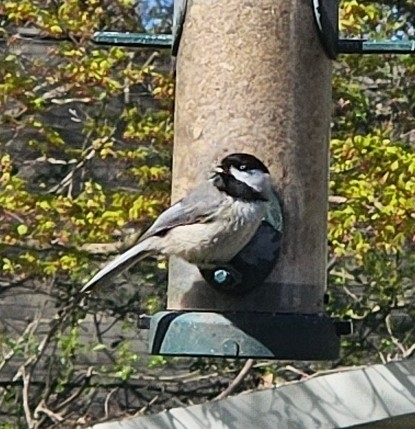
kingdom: Animalia
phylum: Chordata
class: Aves
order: Passeriformes
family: Paridae
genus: Poecile
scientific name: Poecile carolinensis
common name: Carolina chickadee
